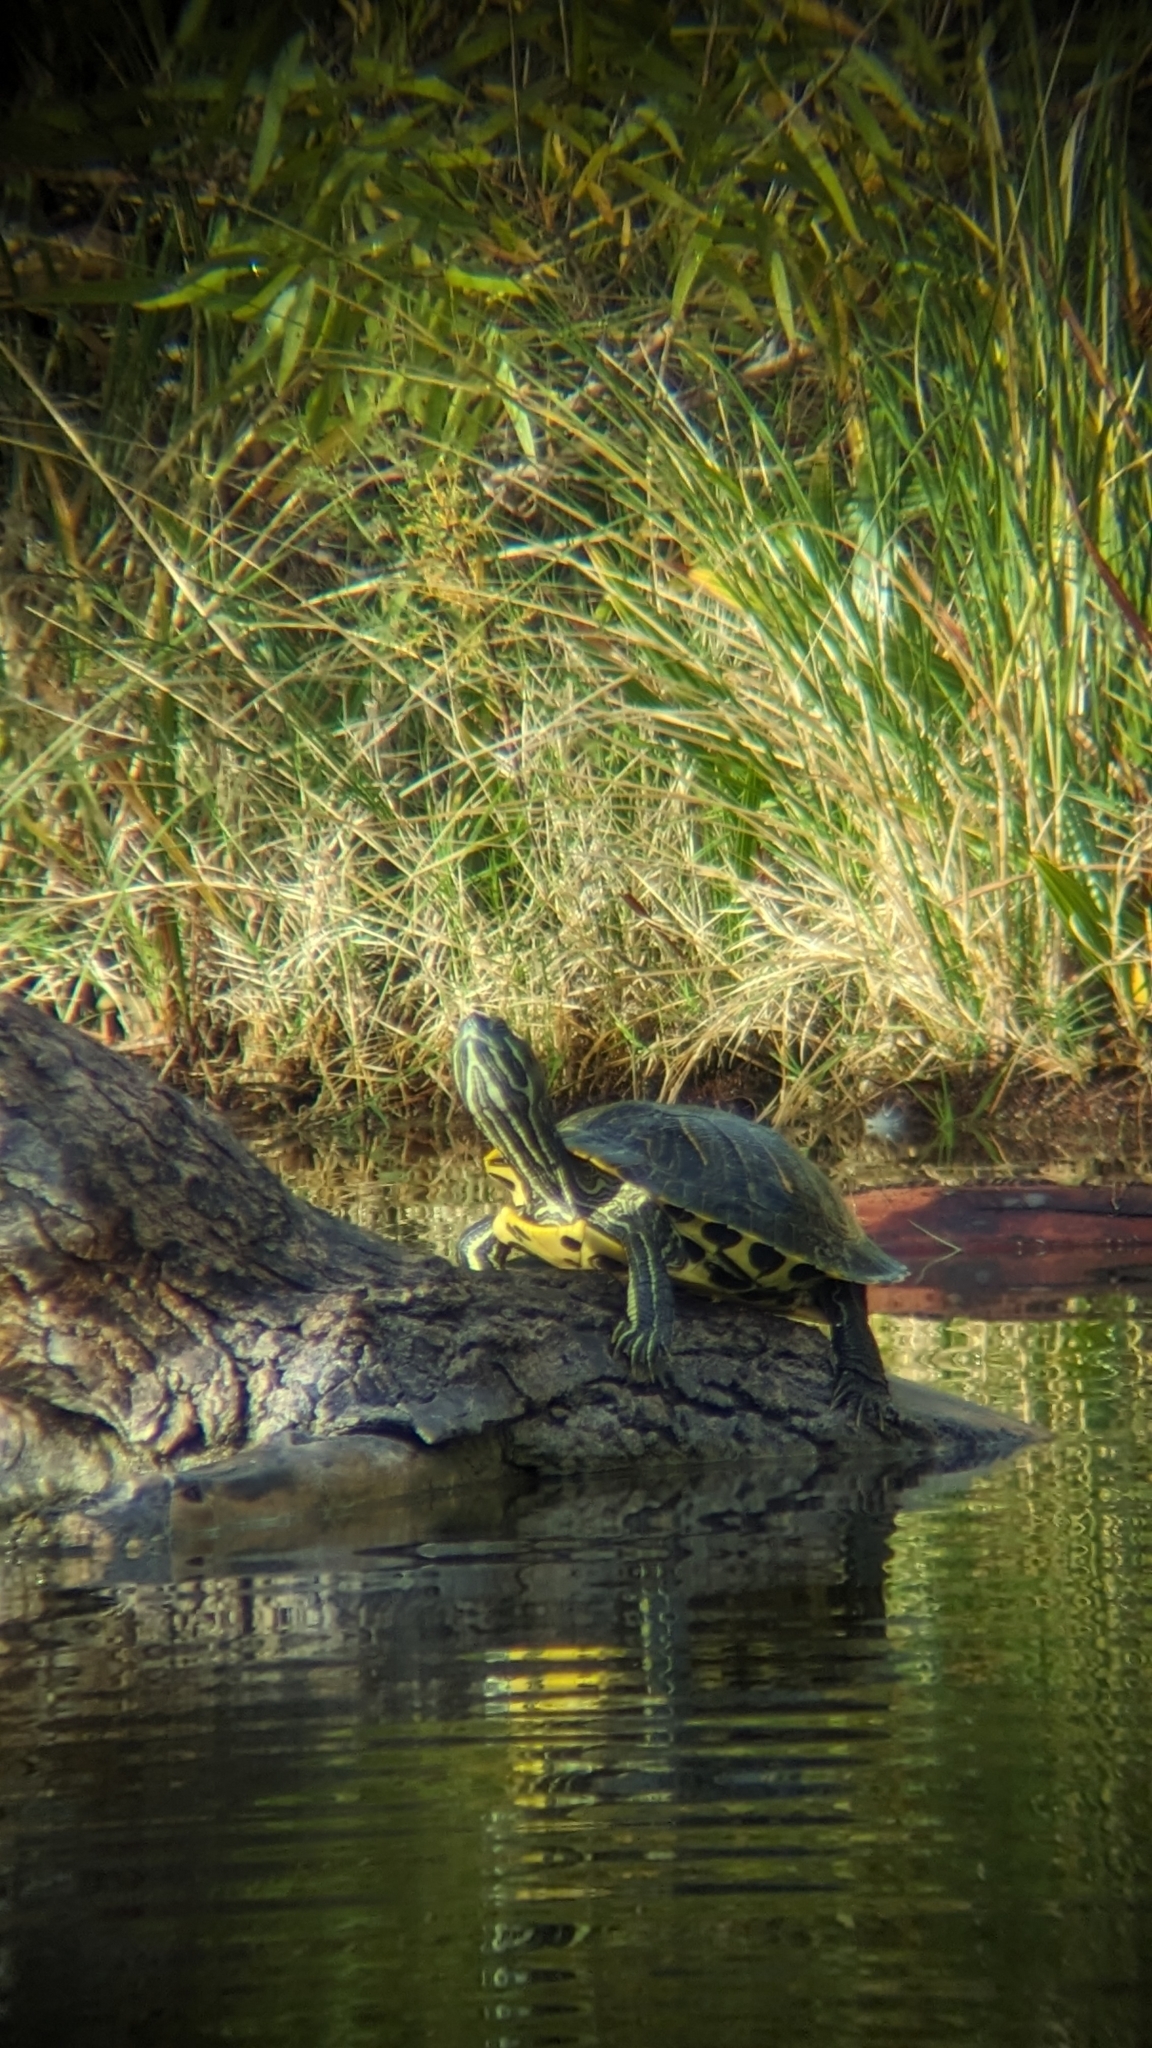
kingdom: Animalia
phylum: Chordata
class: Testudines
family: Emydidae
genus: Trachemys
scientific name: Trachemys scripta
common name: Slider
